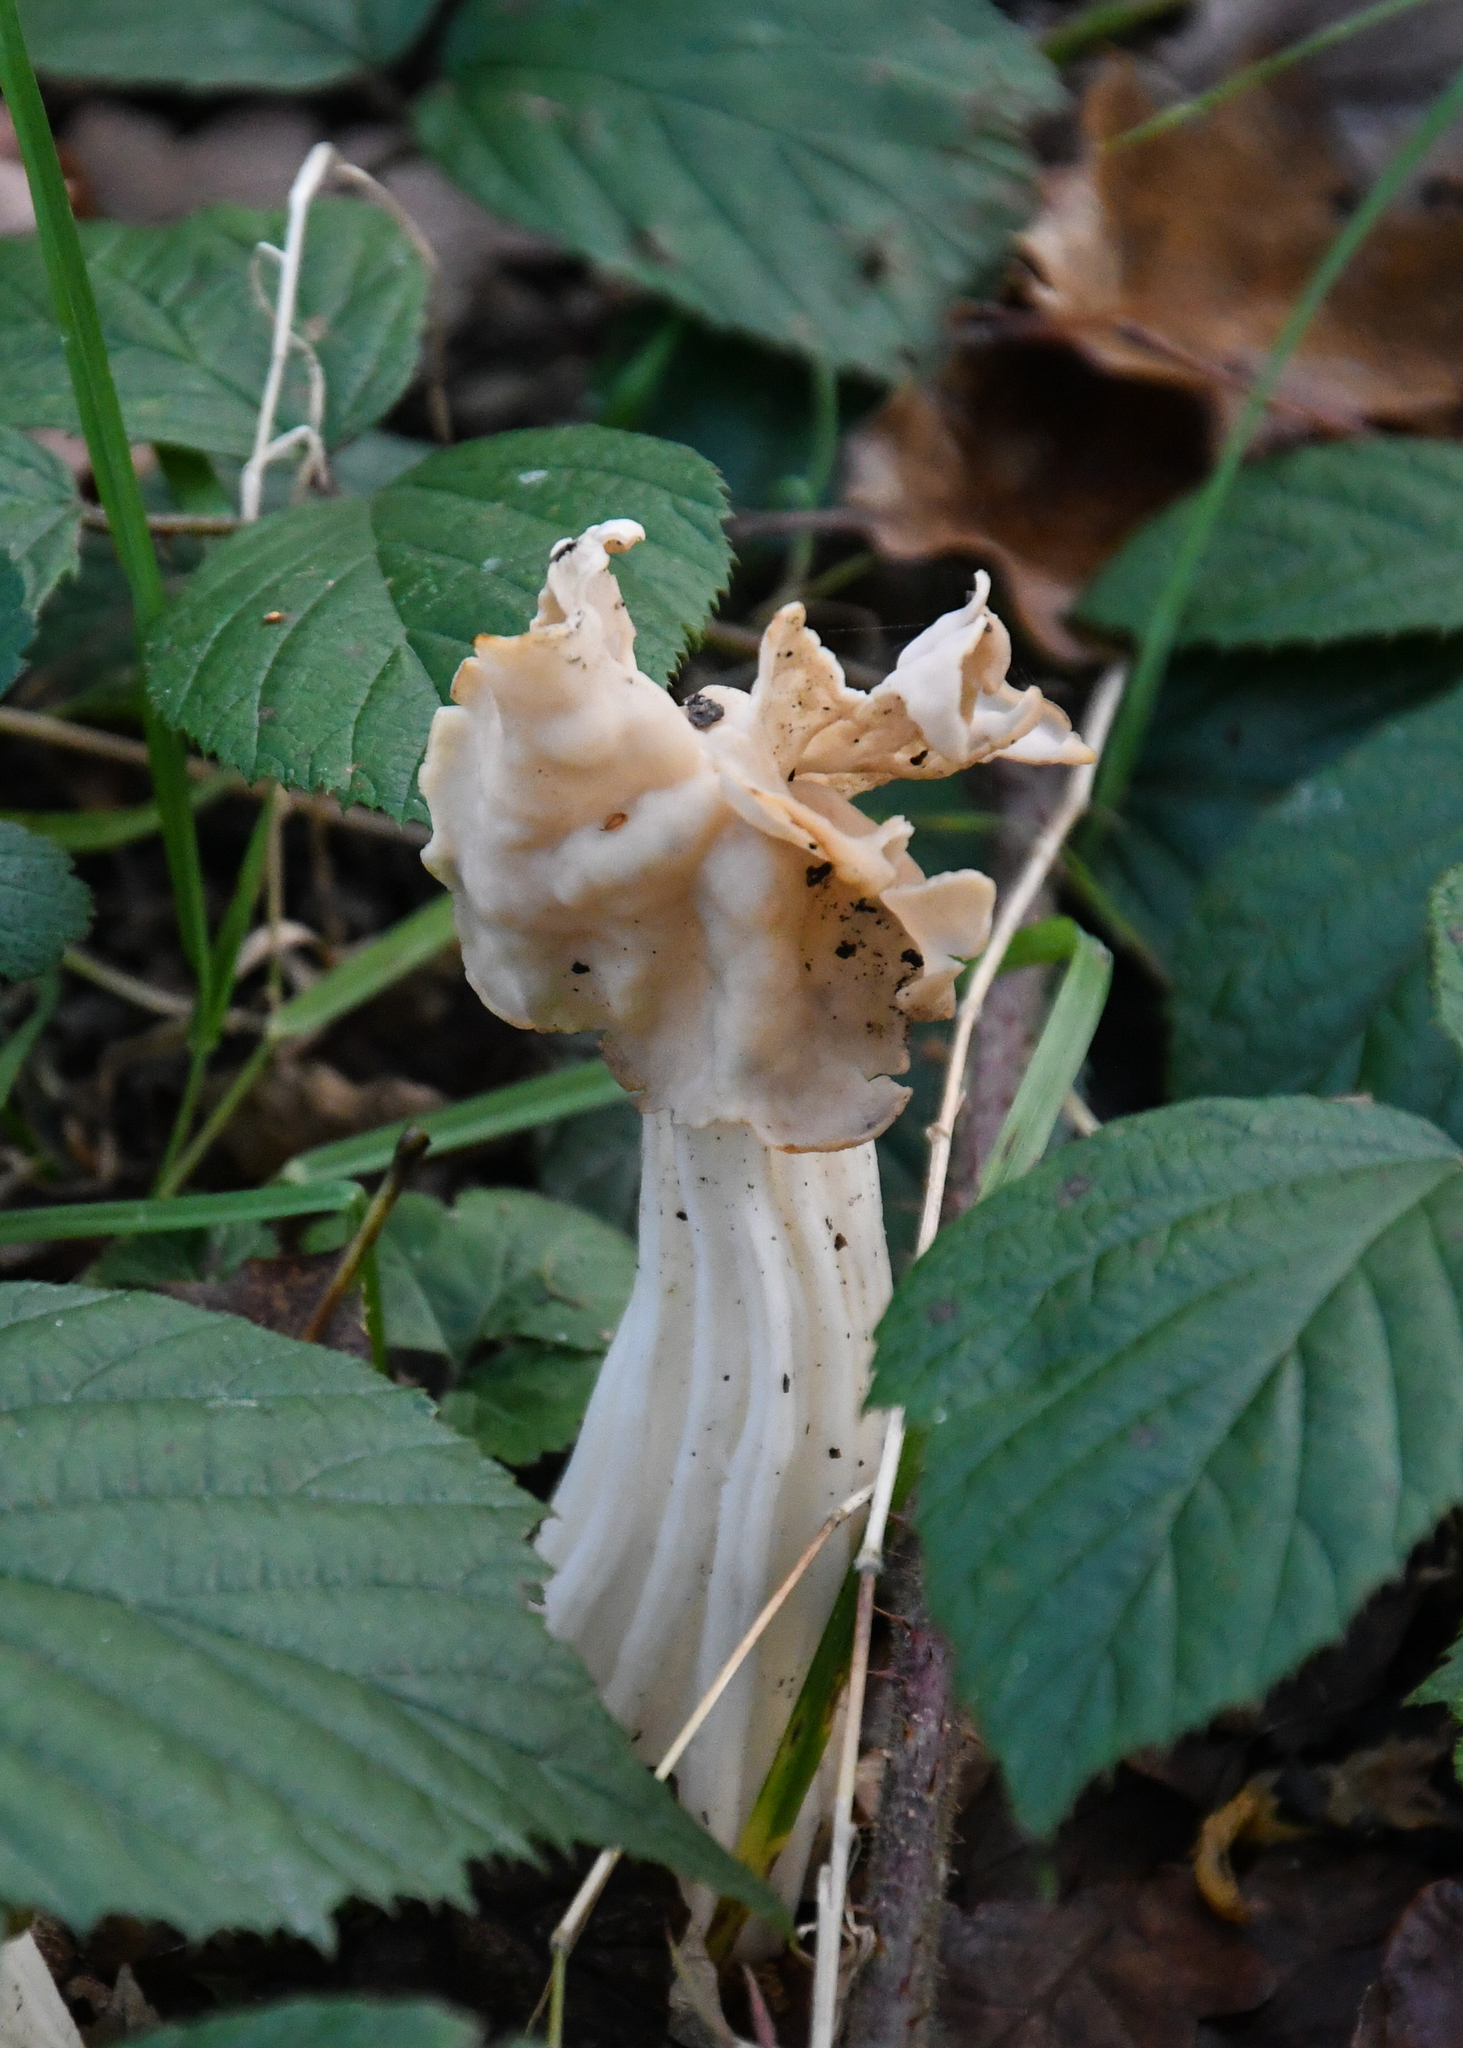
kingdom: Fungi
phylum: Ascomycota
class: Pezizomycetes
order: Pezizales
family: Helvellaceae
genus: Helvella
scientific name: Helvella crispa
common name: White saddle
